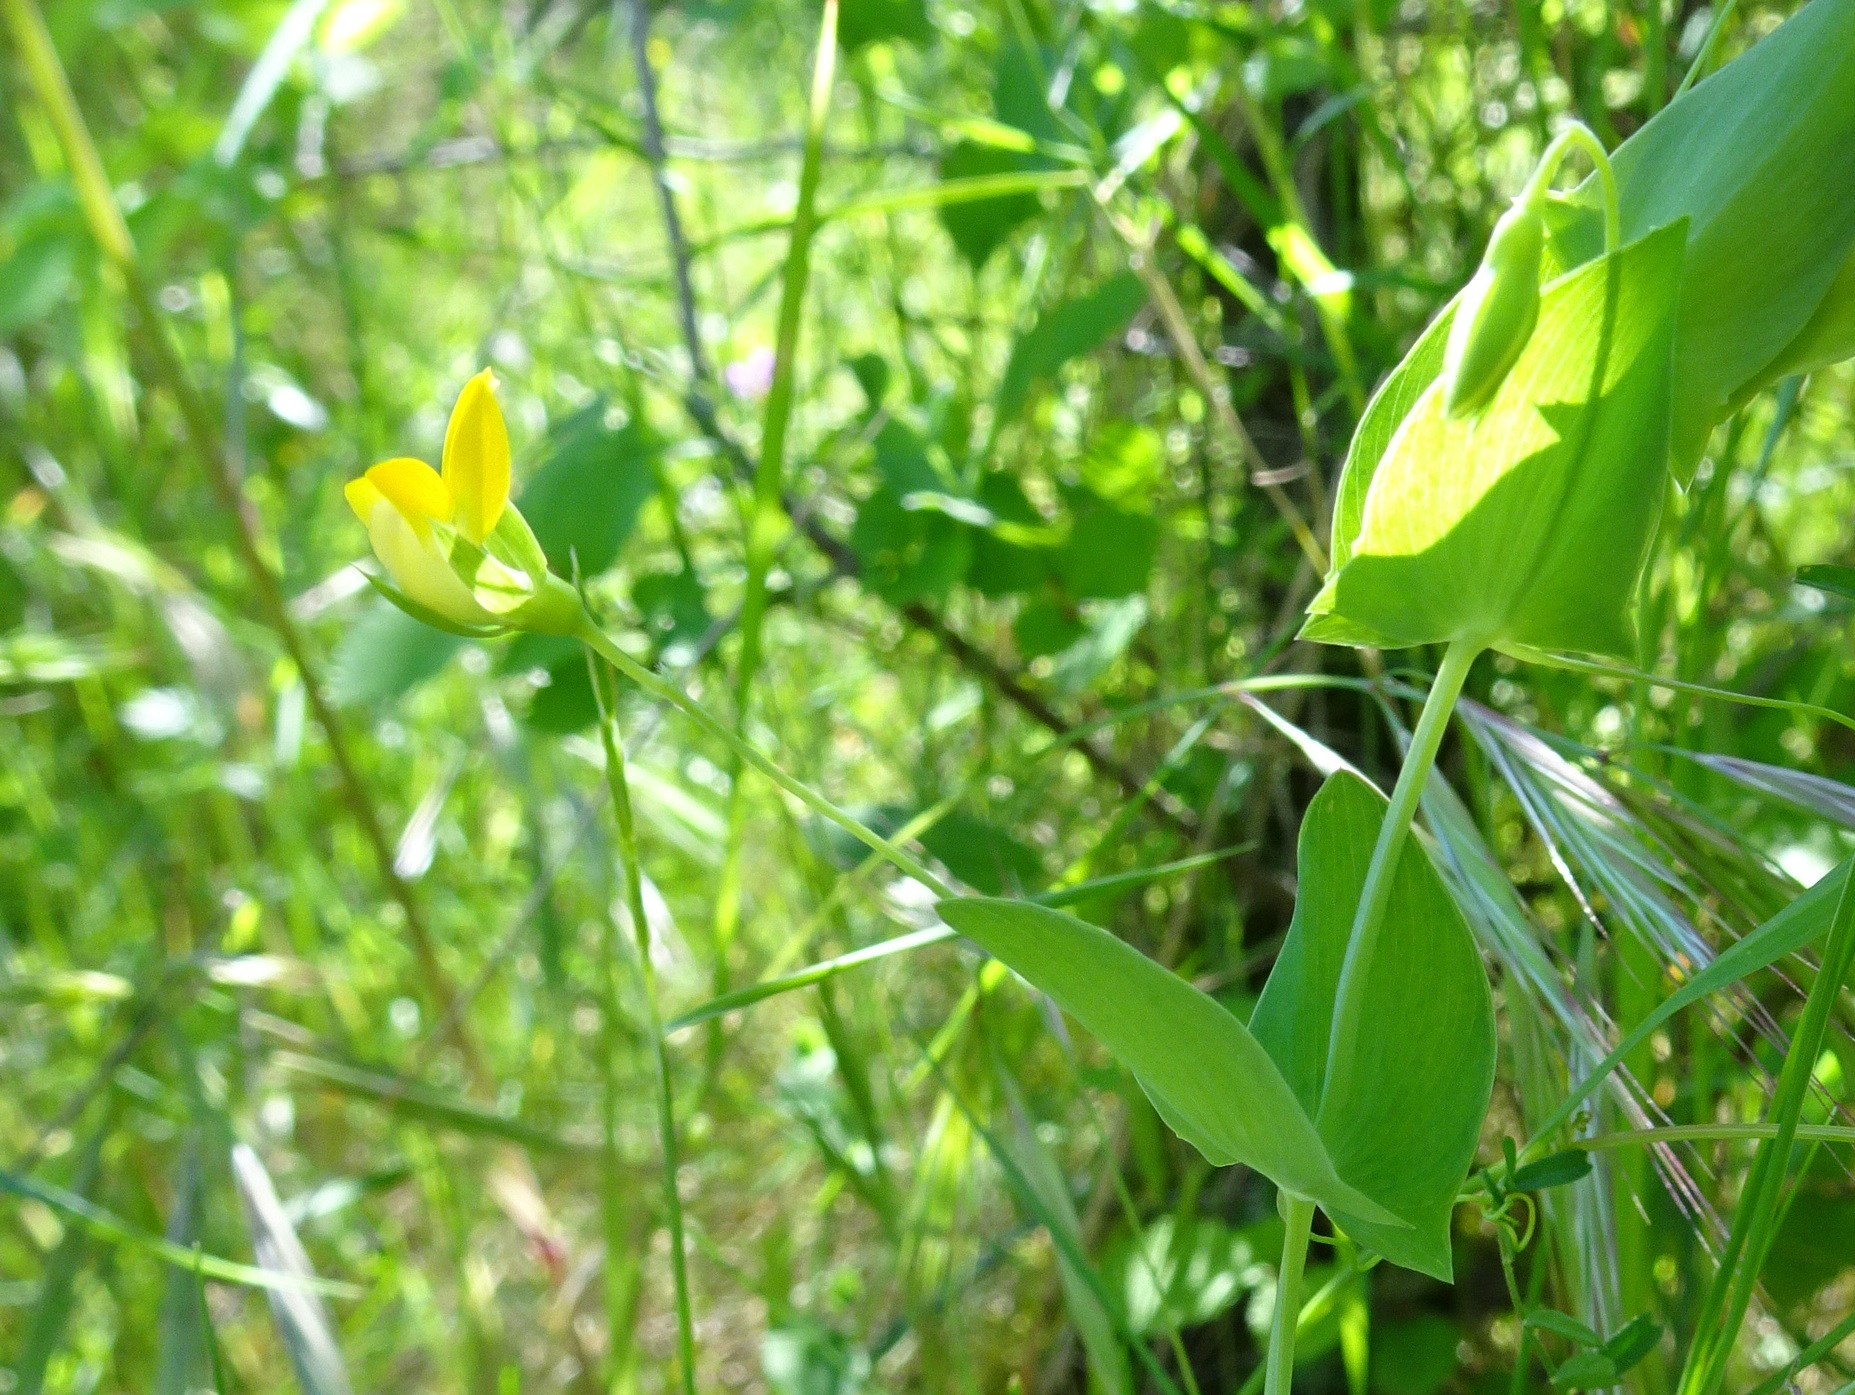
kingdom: Plantae
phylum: Tracheophyta
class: Magnoliopsida
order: Fabales
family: Fabaceae
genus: Lathyrus
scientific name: Lathyrus aphaca
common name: Yellow vetchling
